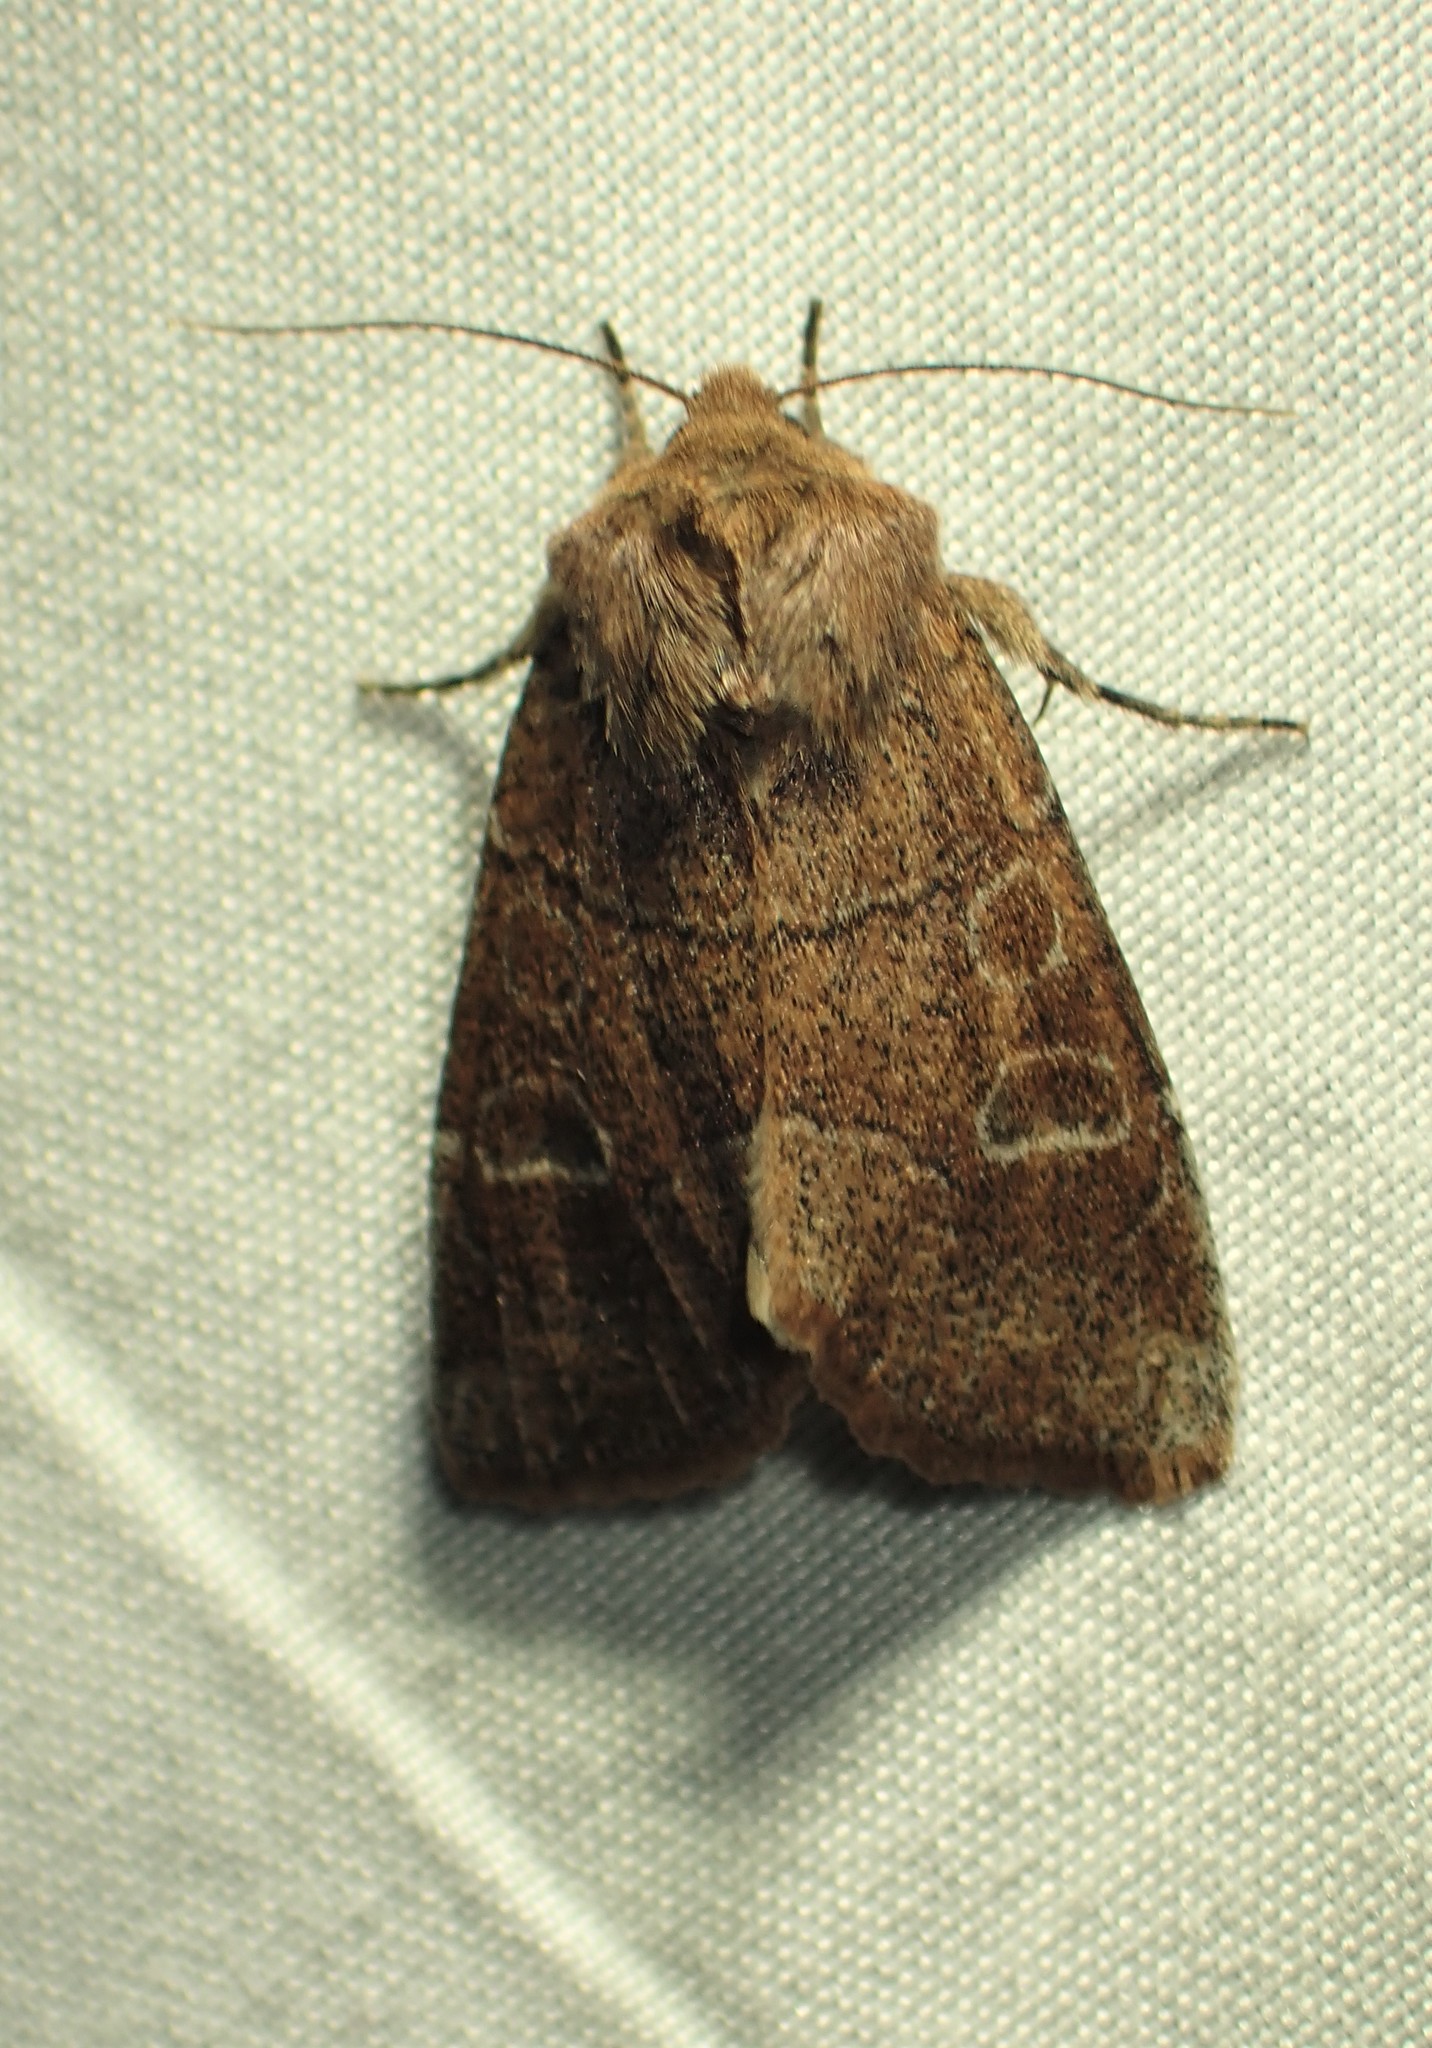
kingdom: Animalia
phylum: Arthropoda
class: Insecta
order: Lepidoptera
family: Noctuidae
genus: Crocigrapha
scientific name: Crocigrapha normani
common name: Norman's quaker
